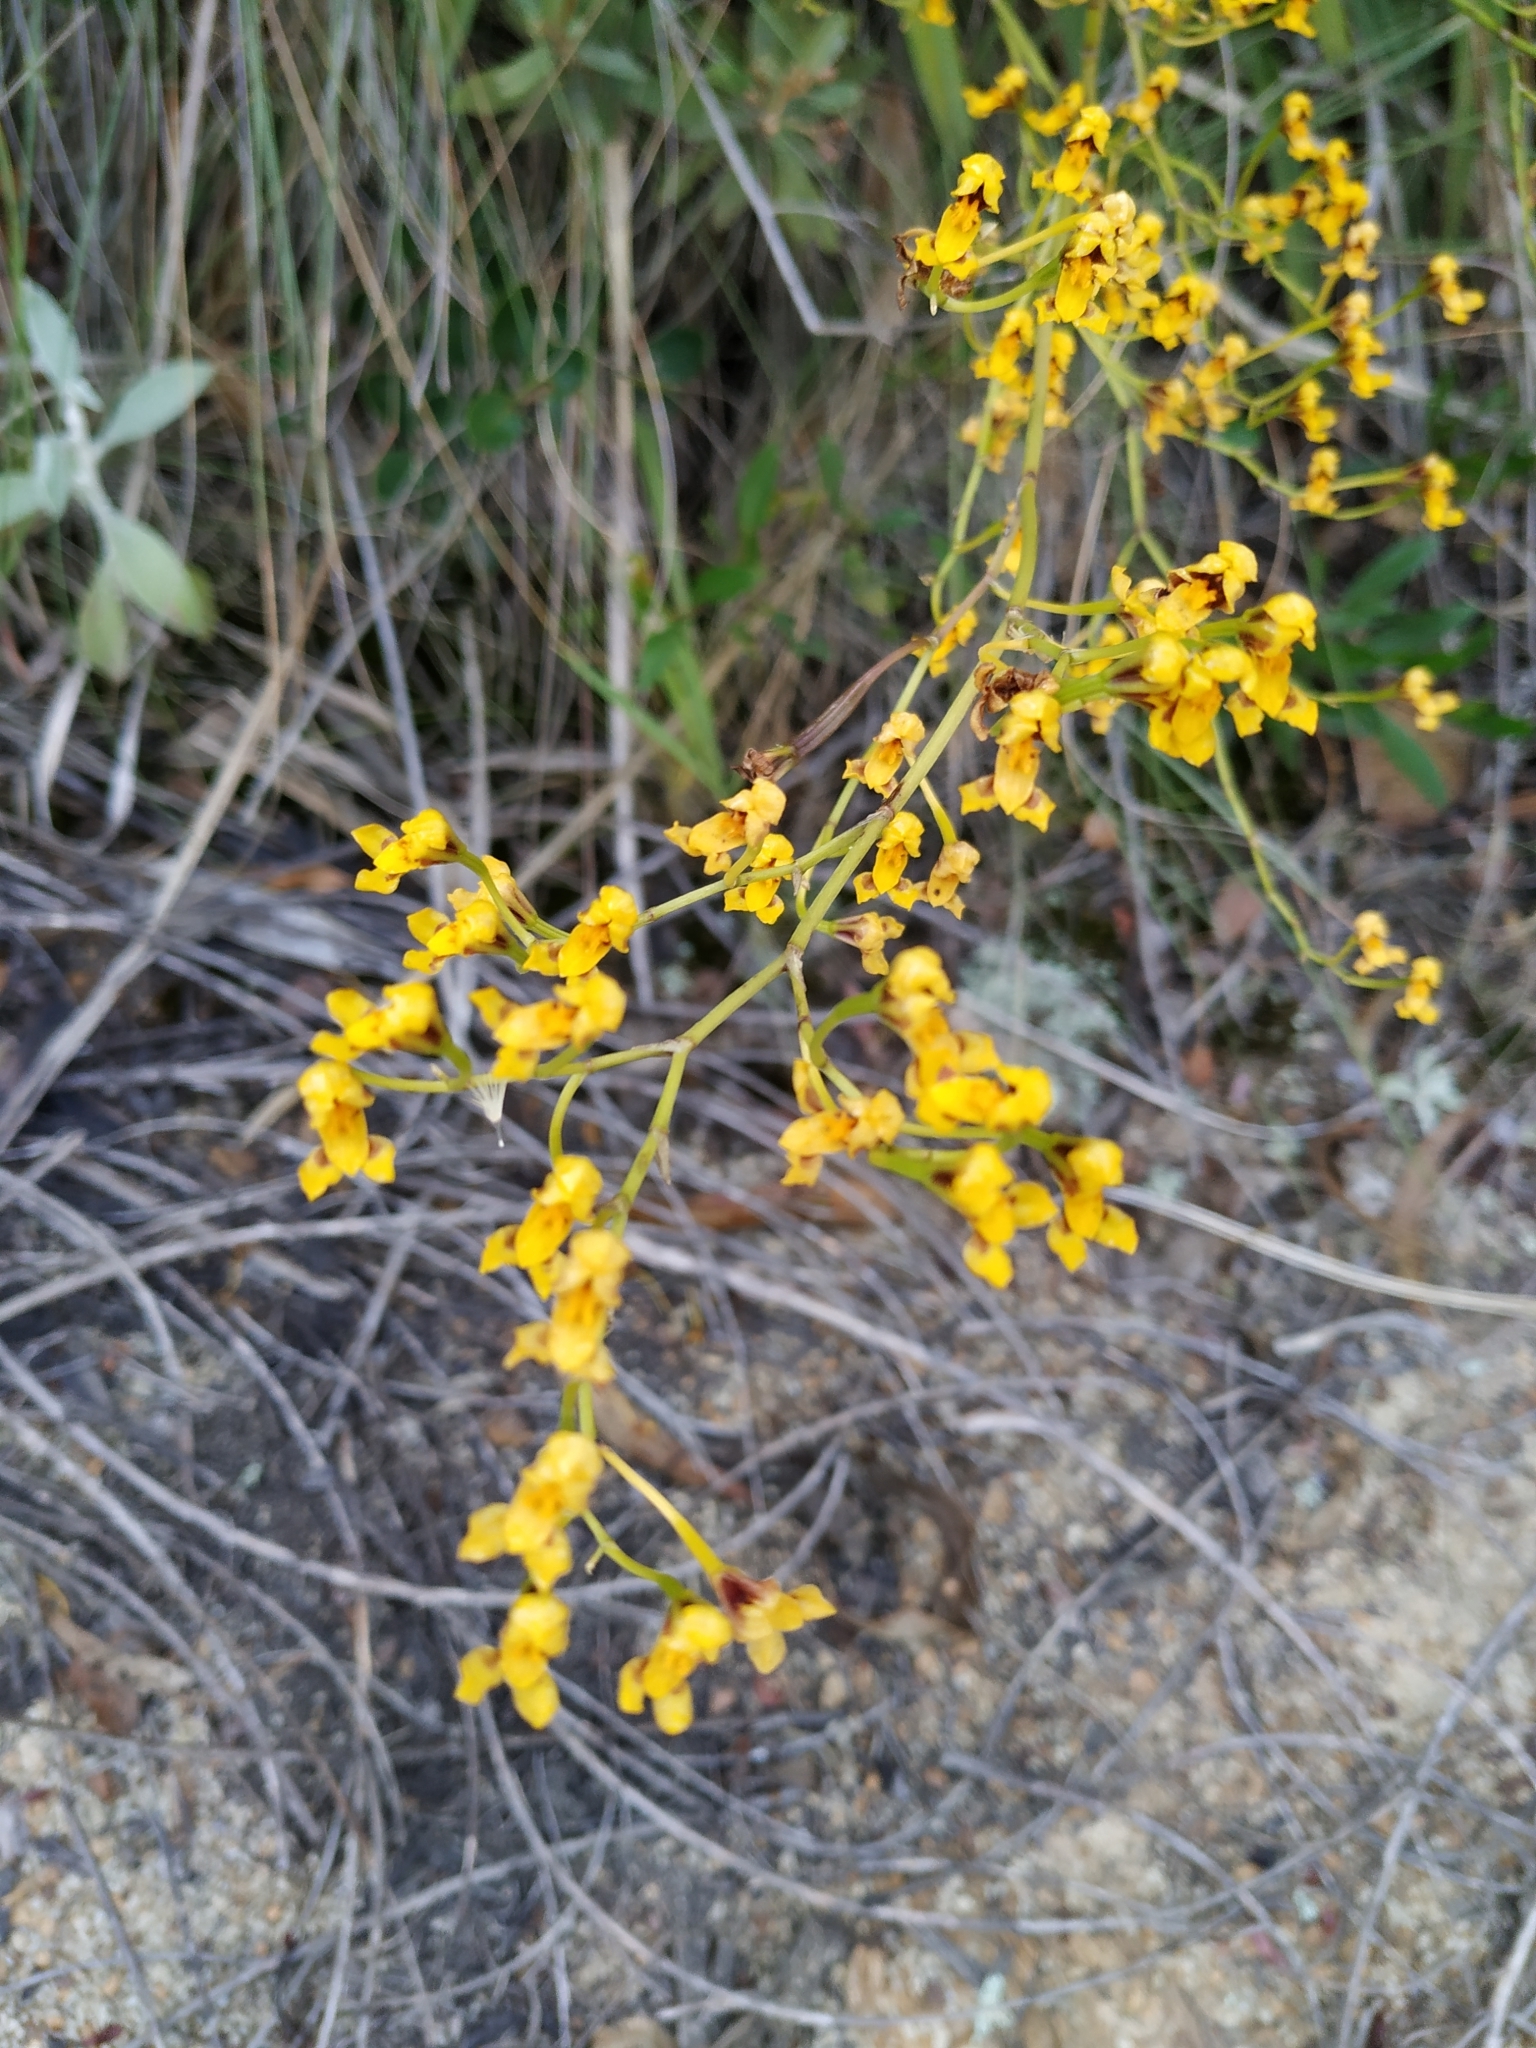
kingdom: Plantae
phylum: Tracheophyta
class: Liliopsida
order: Asparagales
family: Orchidaceae
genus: Cyrtochilum
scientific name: Cyrtochilum densiflorum
